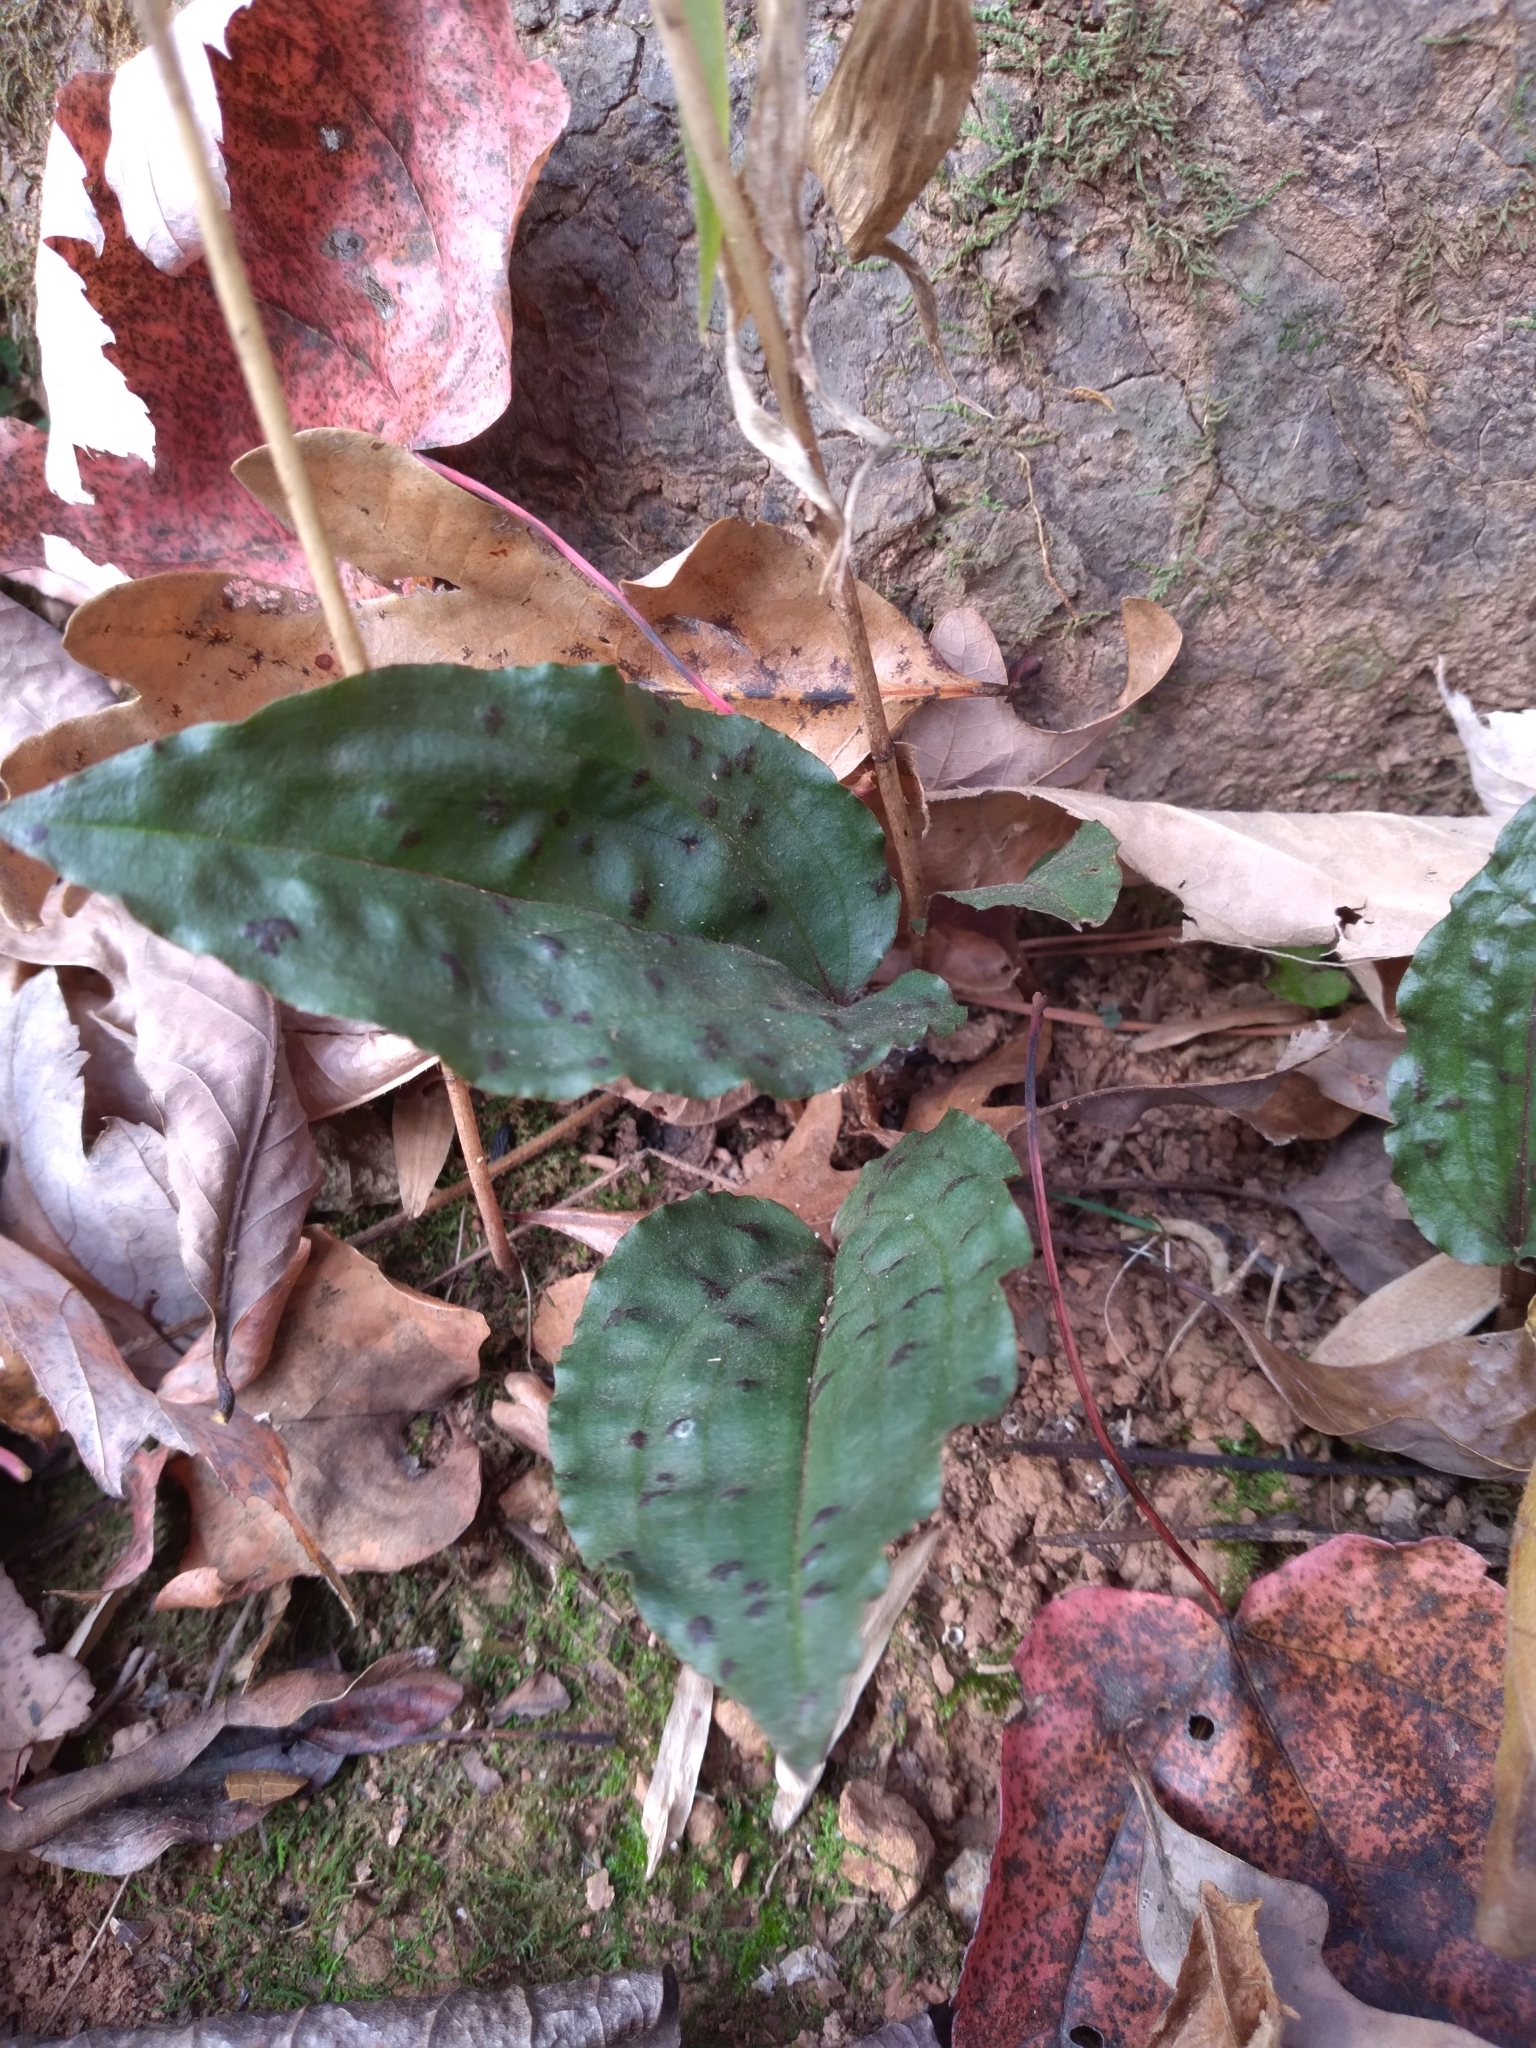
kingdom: Plantae
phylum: Tracheophyta
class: Liliopsida
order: Asparagales
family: Orchidaceae
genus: Tipularia
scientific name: Tipularia discolor
